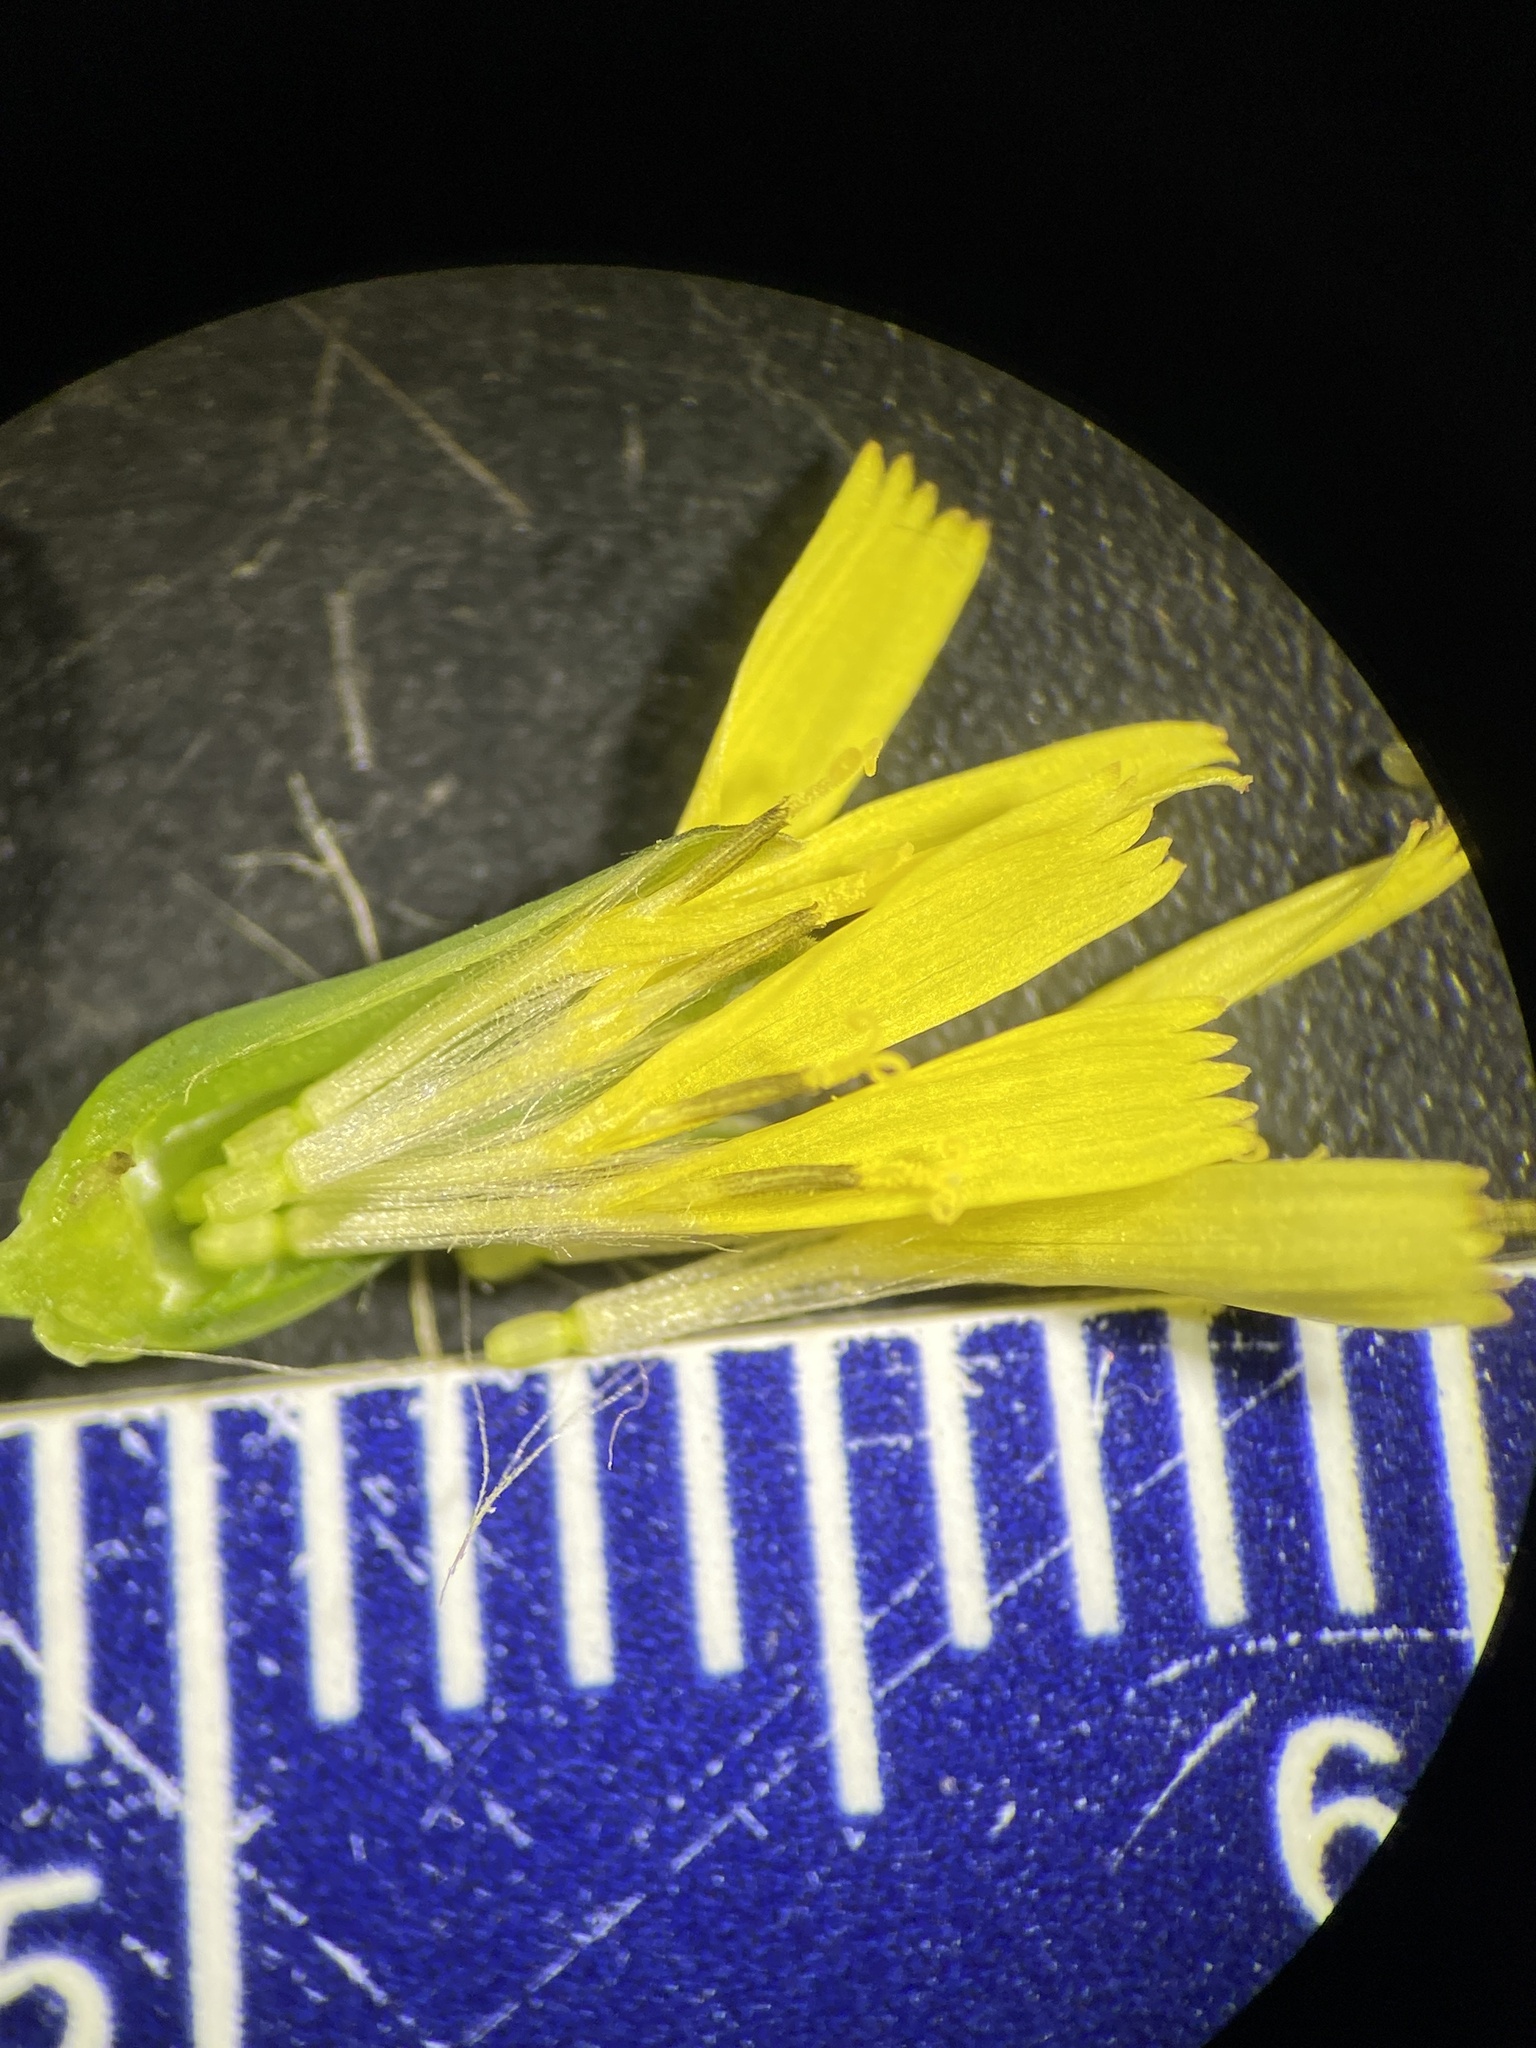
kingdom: Plantae
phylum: Tracheophyta
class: Magnoliopsida
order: Asterales
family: Asteraceae
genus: Youngia
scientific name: Youngia japonica
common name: Oriental false hawksbeard
